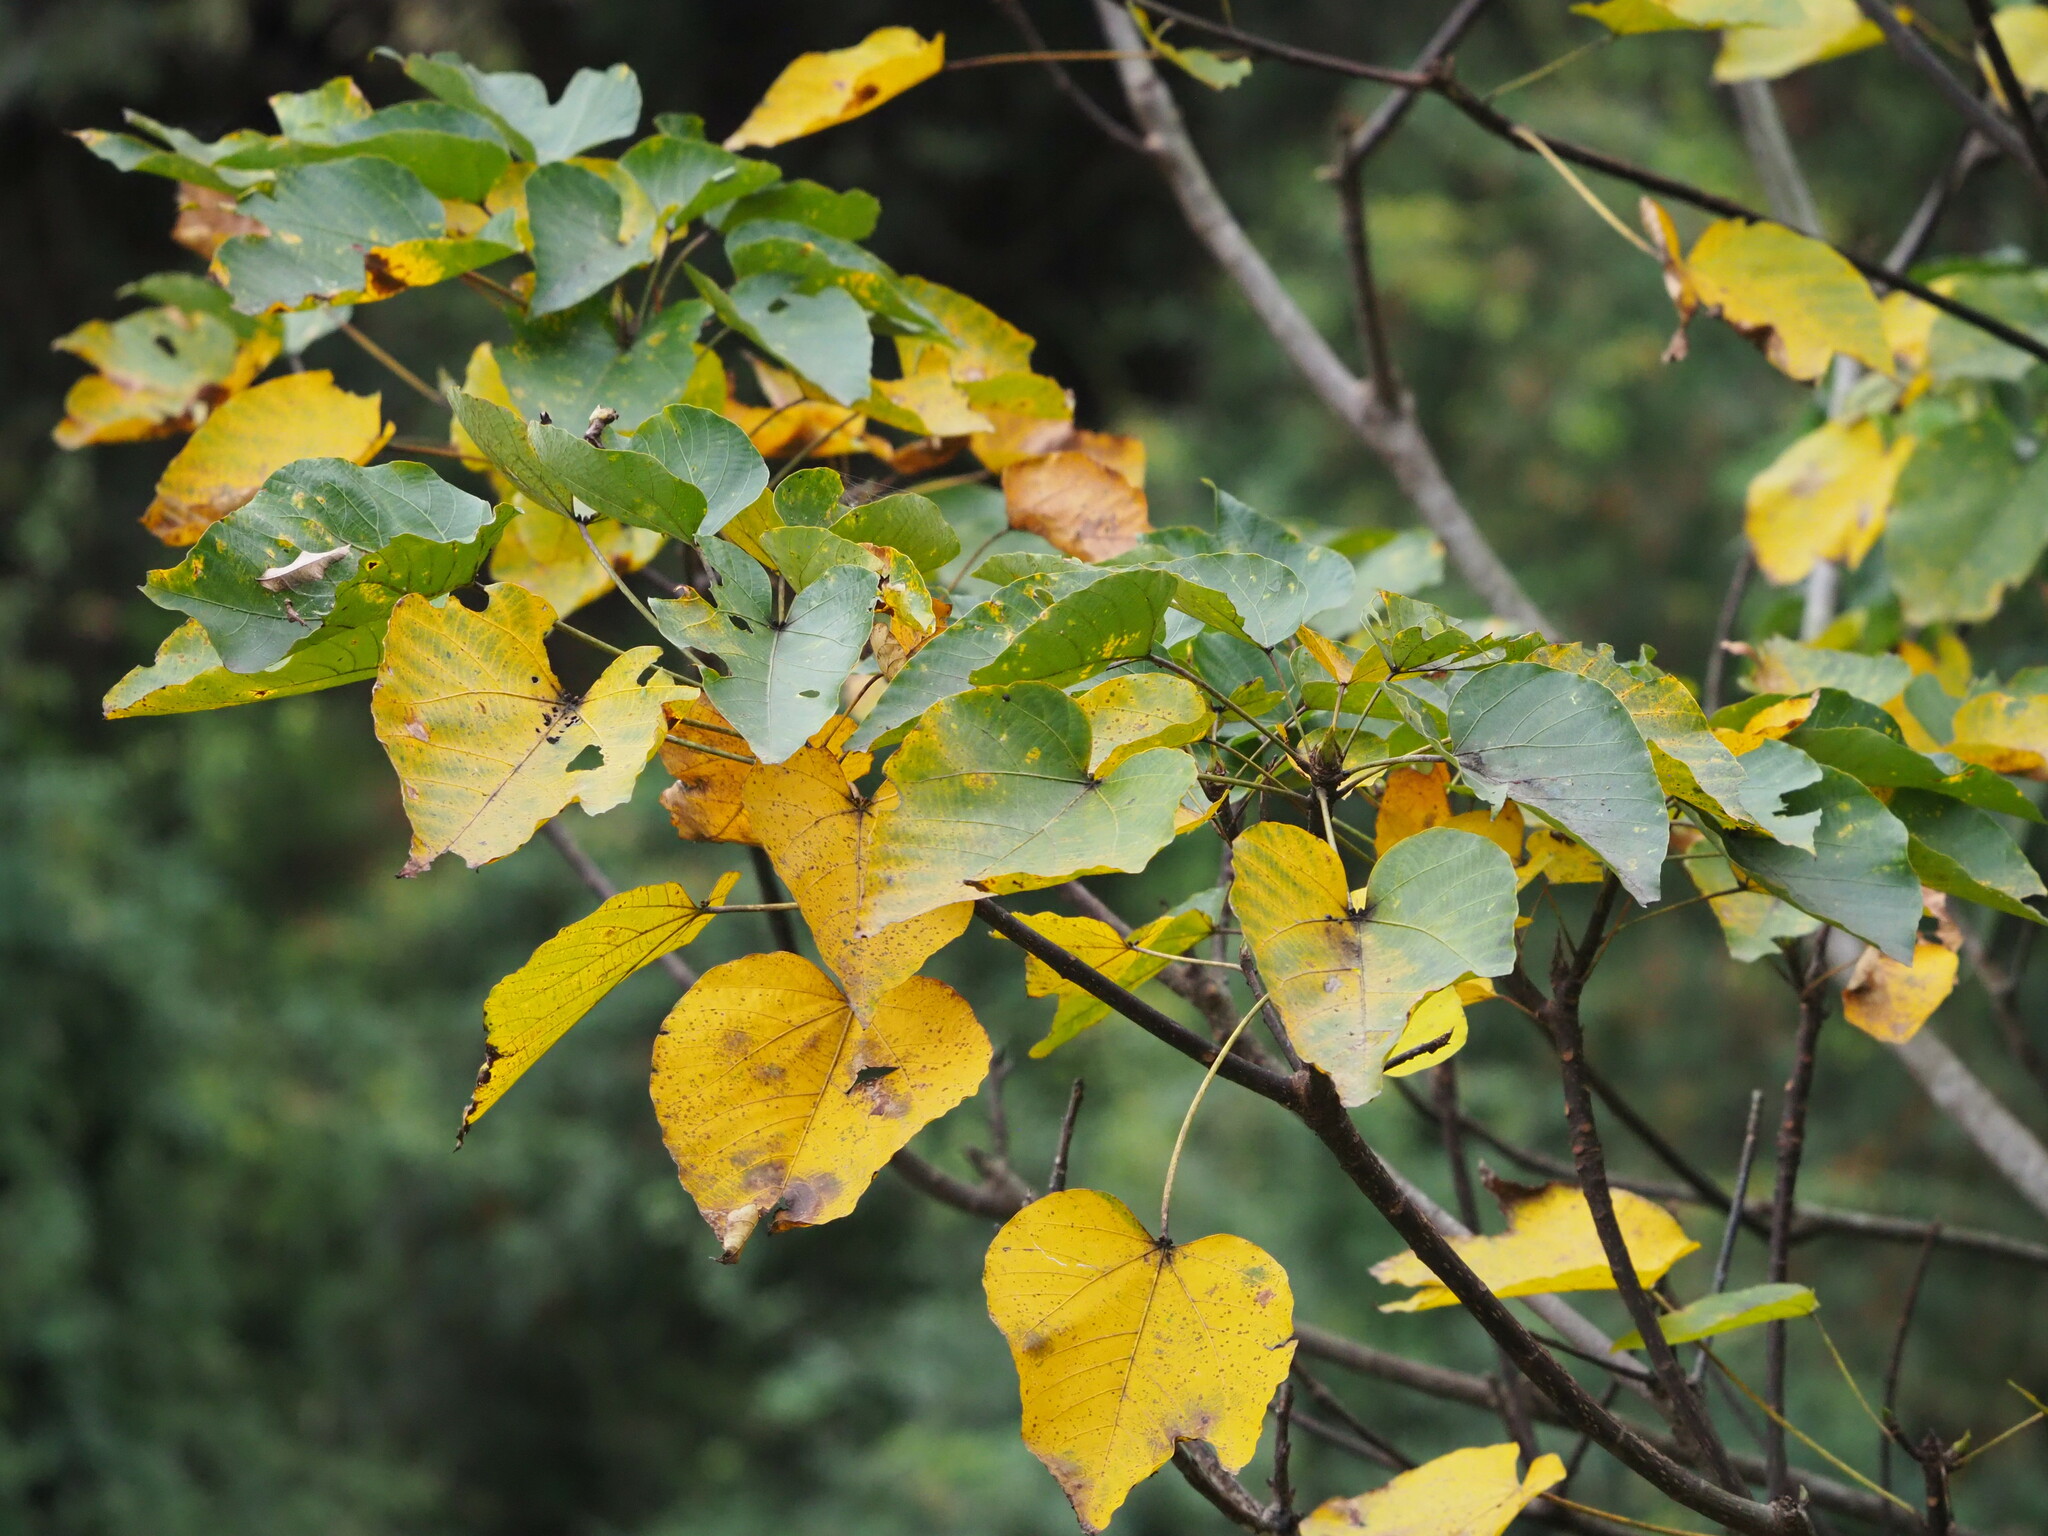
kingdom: Plantae
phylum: Tracheophyta
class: Magnoliopsida
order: Malpighiales
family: Euphorbiaceae
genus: Vernicia
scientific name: Vernicia montana
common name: Mu oil tree
